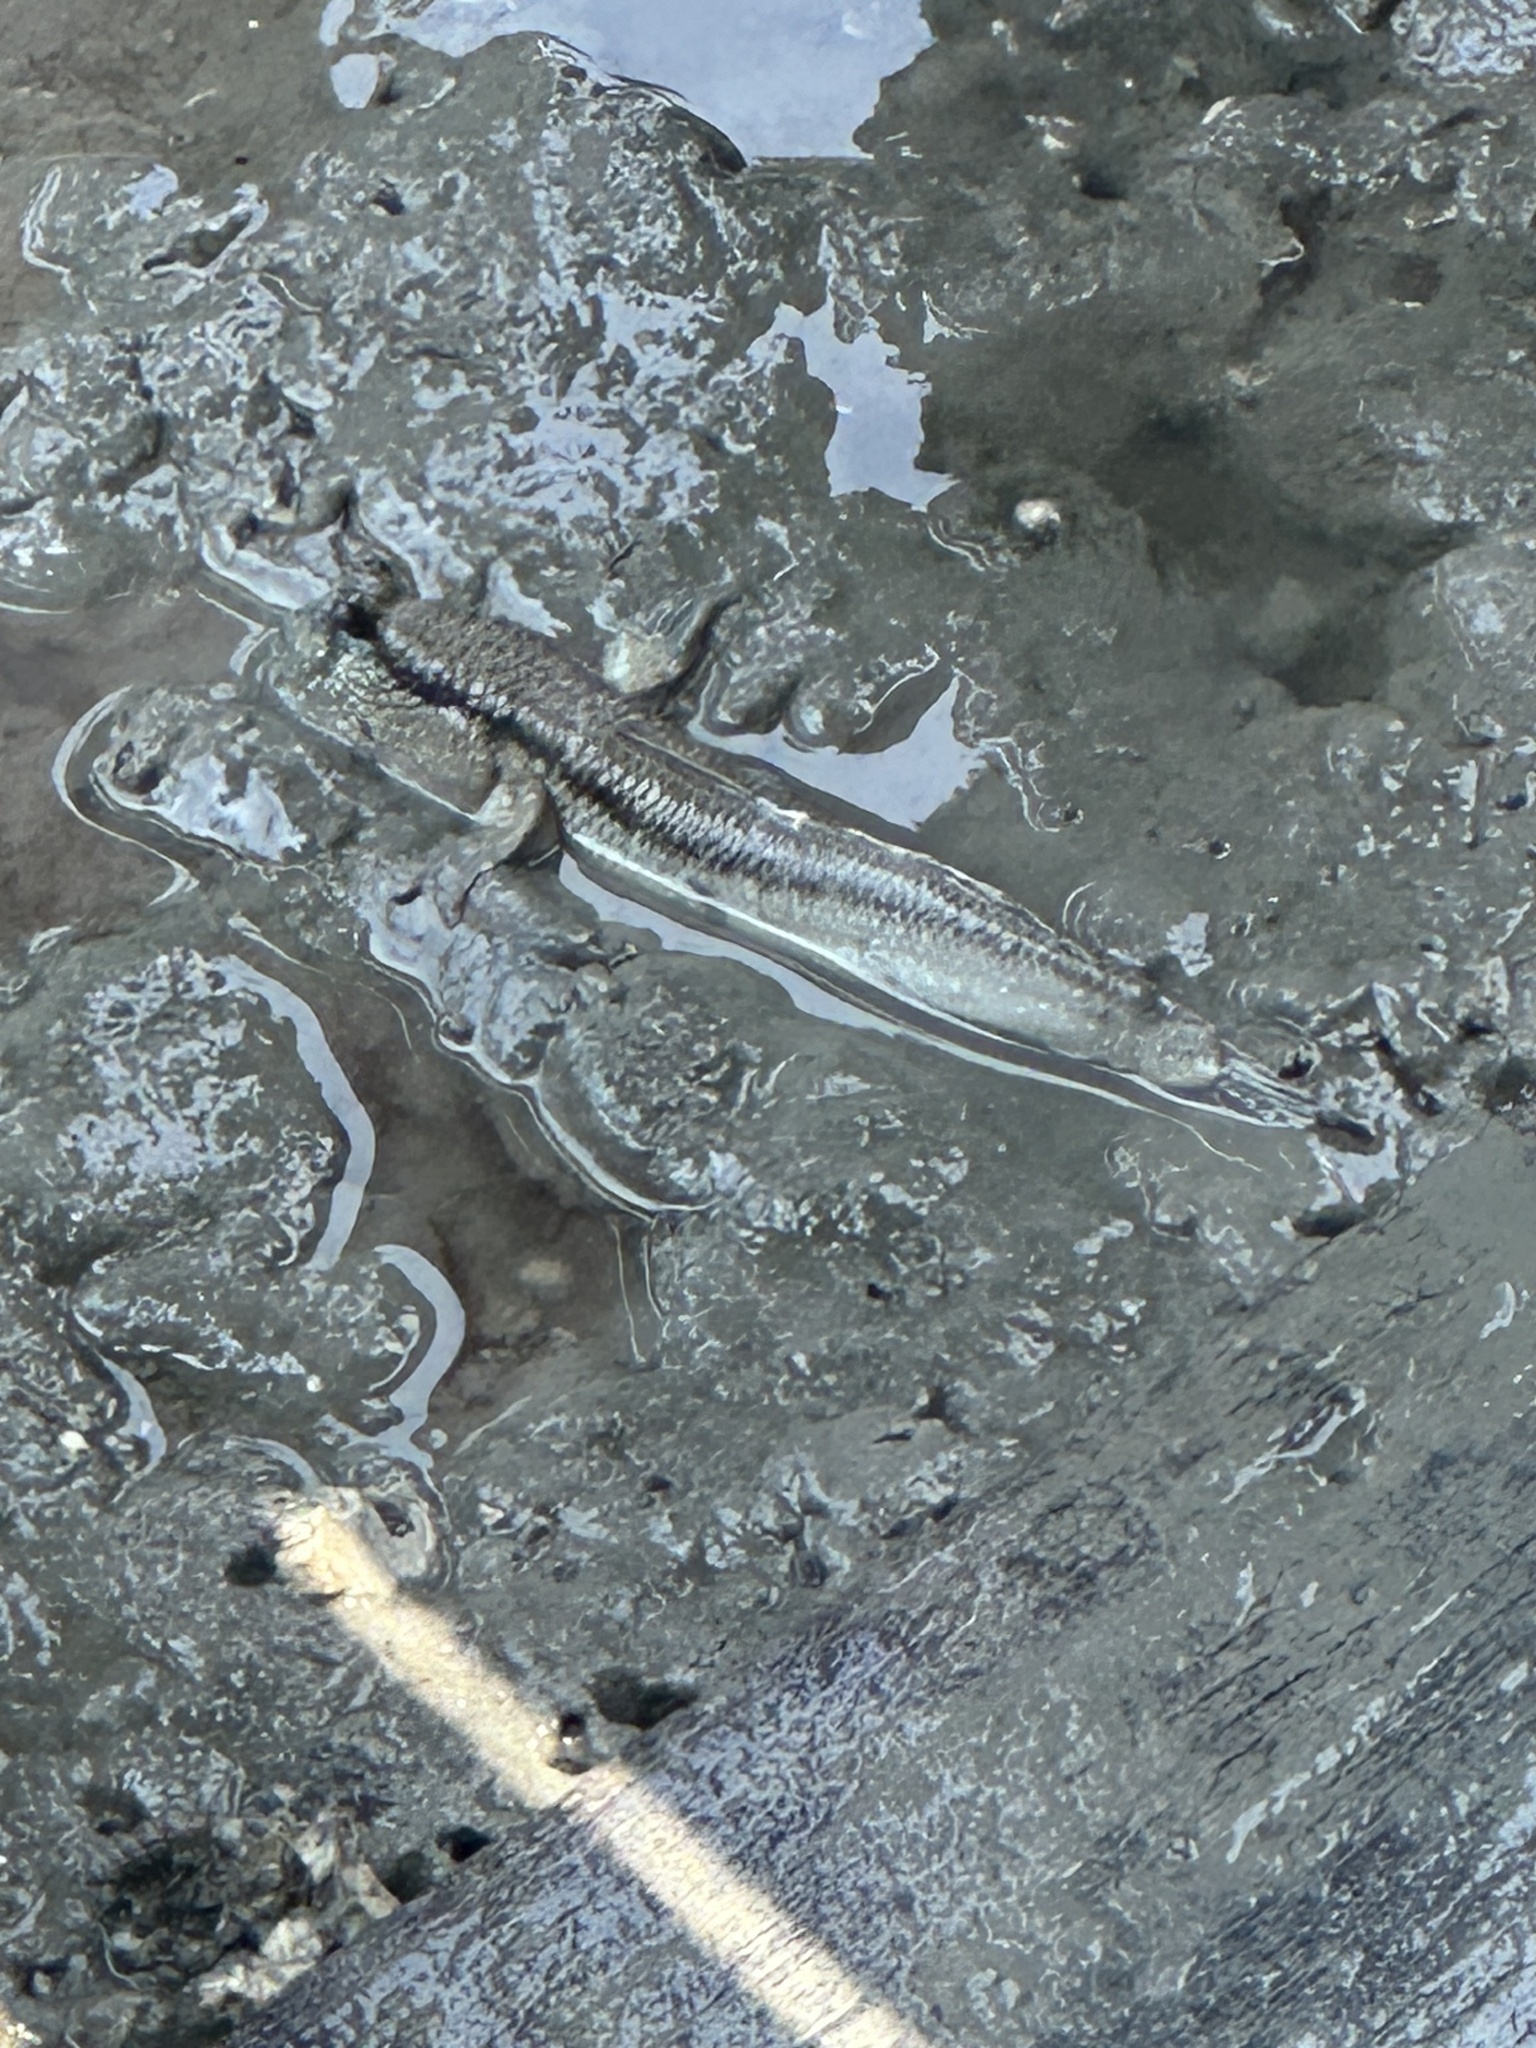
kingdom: Animalia
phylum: Chordata
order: Perciformes
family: Gobiidae
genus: Periophthalmodon
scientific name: Periophthalmodon schlosseri
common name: Giant mudskipper
